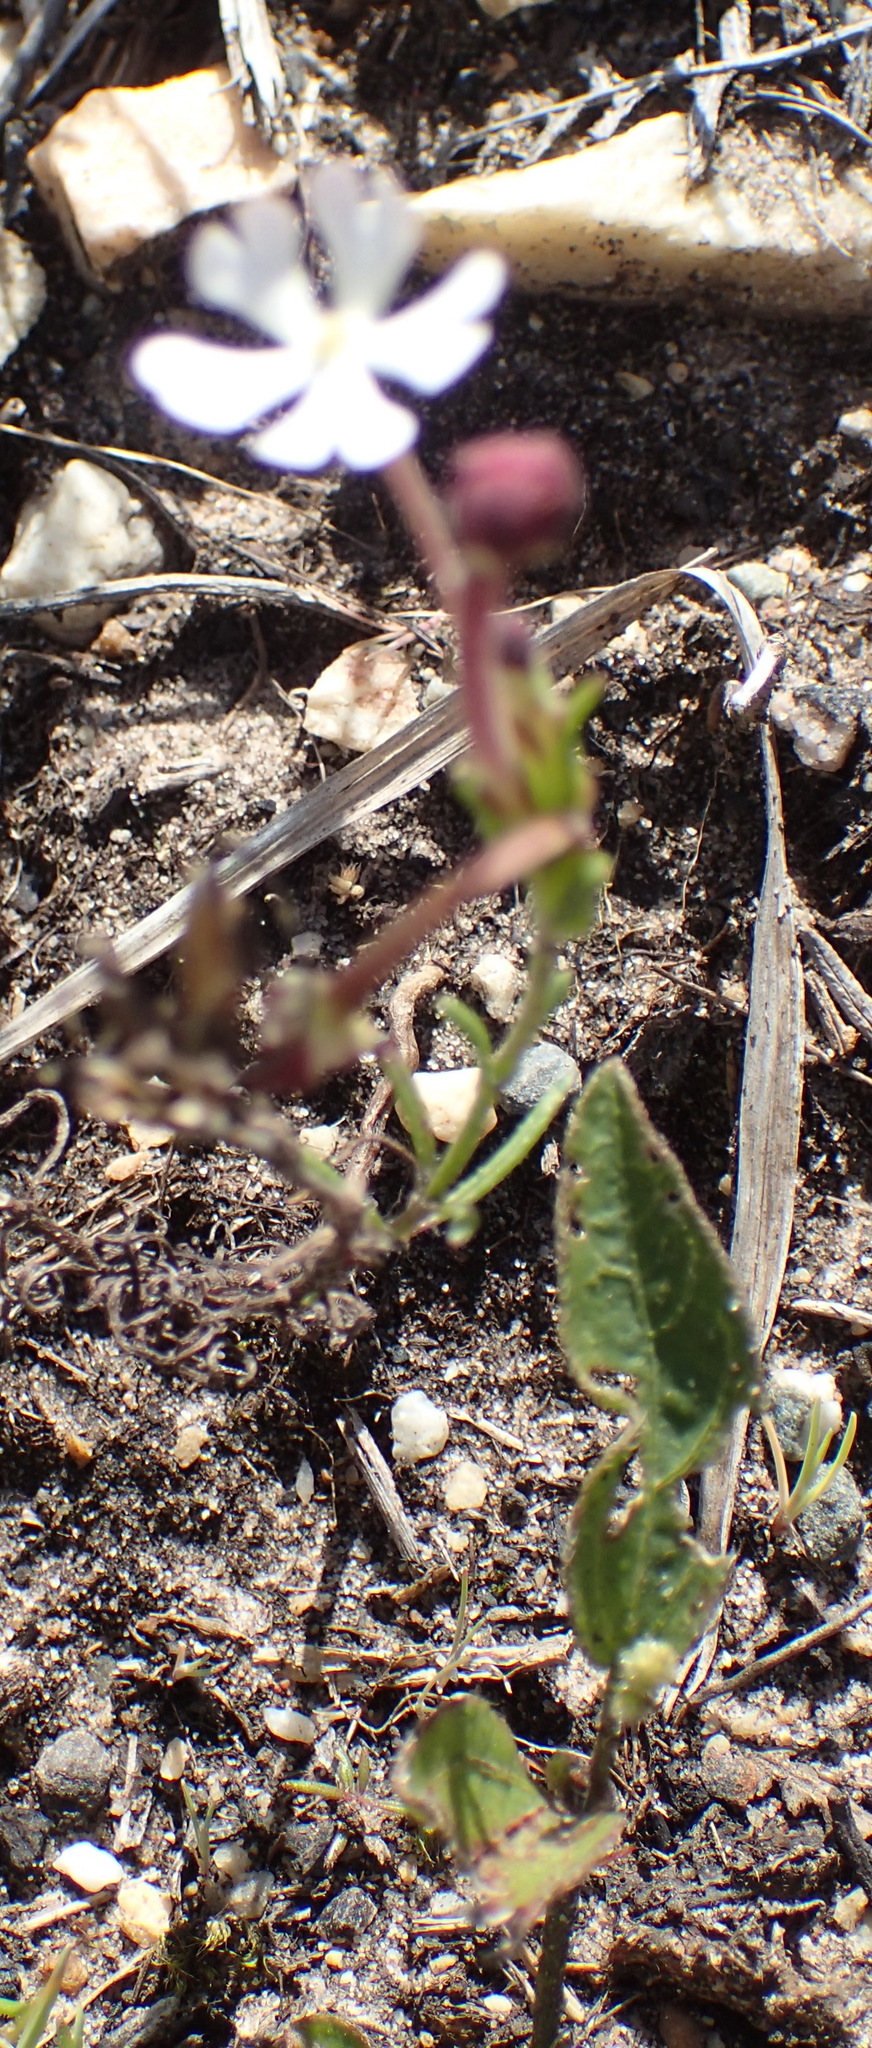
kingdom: Plantae
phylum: Tracheophyta
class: Magnoliopsida
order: Lamiales
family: Scrophulariaceae
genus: Zaluzianskya
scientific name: Zaluzianskya capensis
